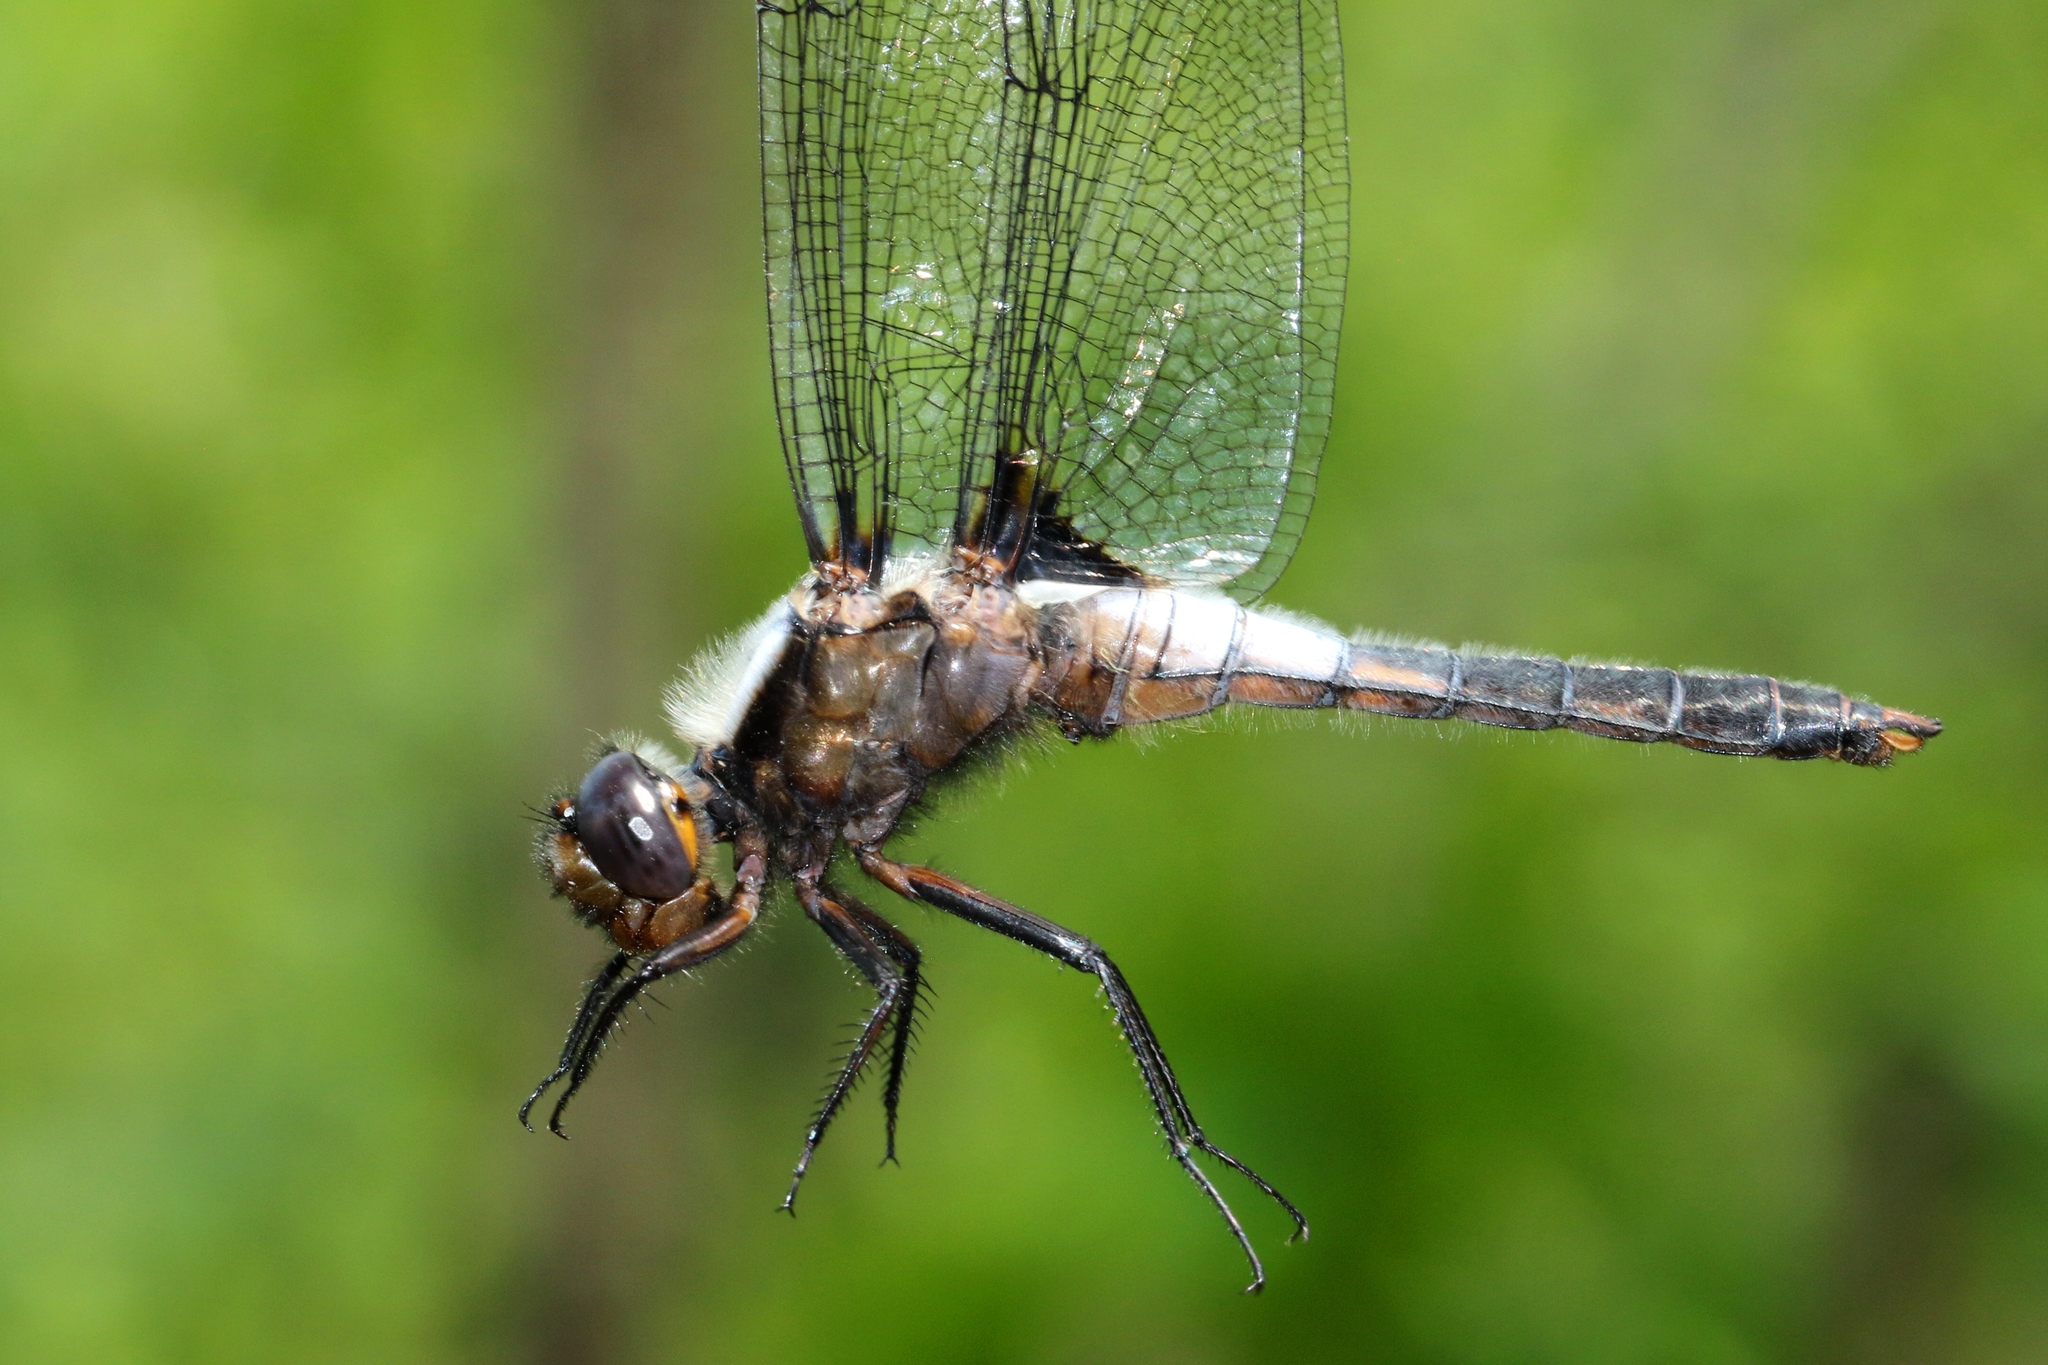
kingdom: Animalia
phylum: Arthropoda
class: Insecta
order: Odonata
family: Libellulidae
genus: Ladona
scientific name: Ladona julia
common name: Chalk-fronted corporal
